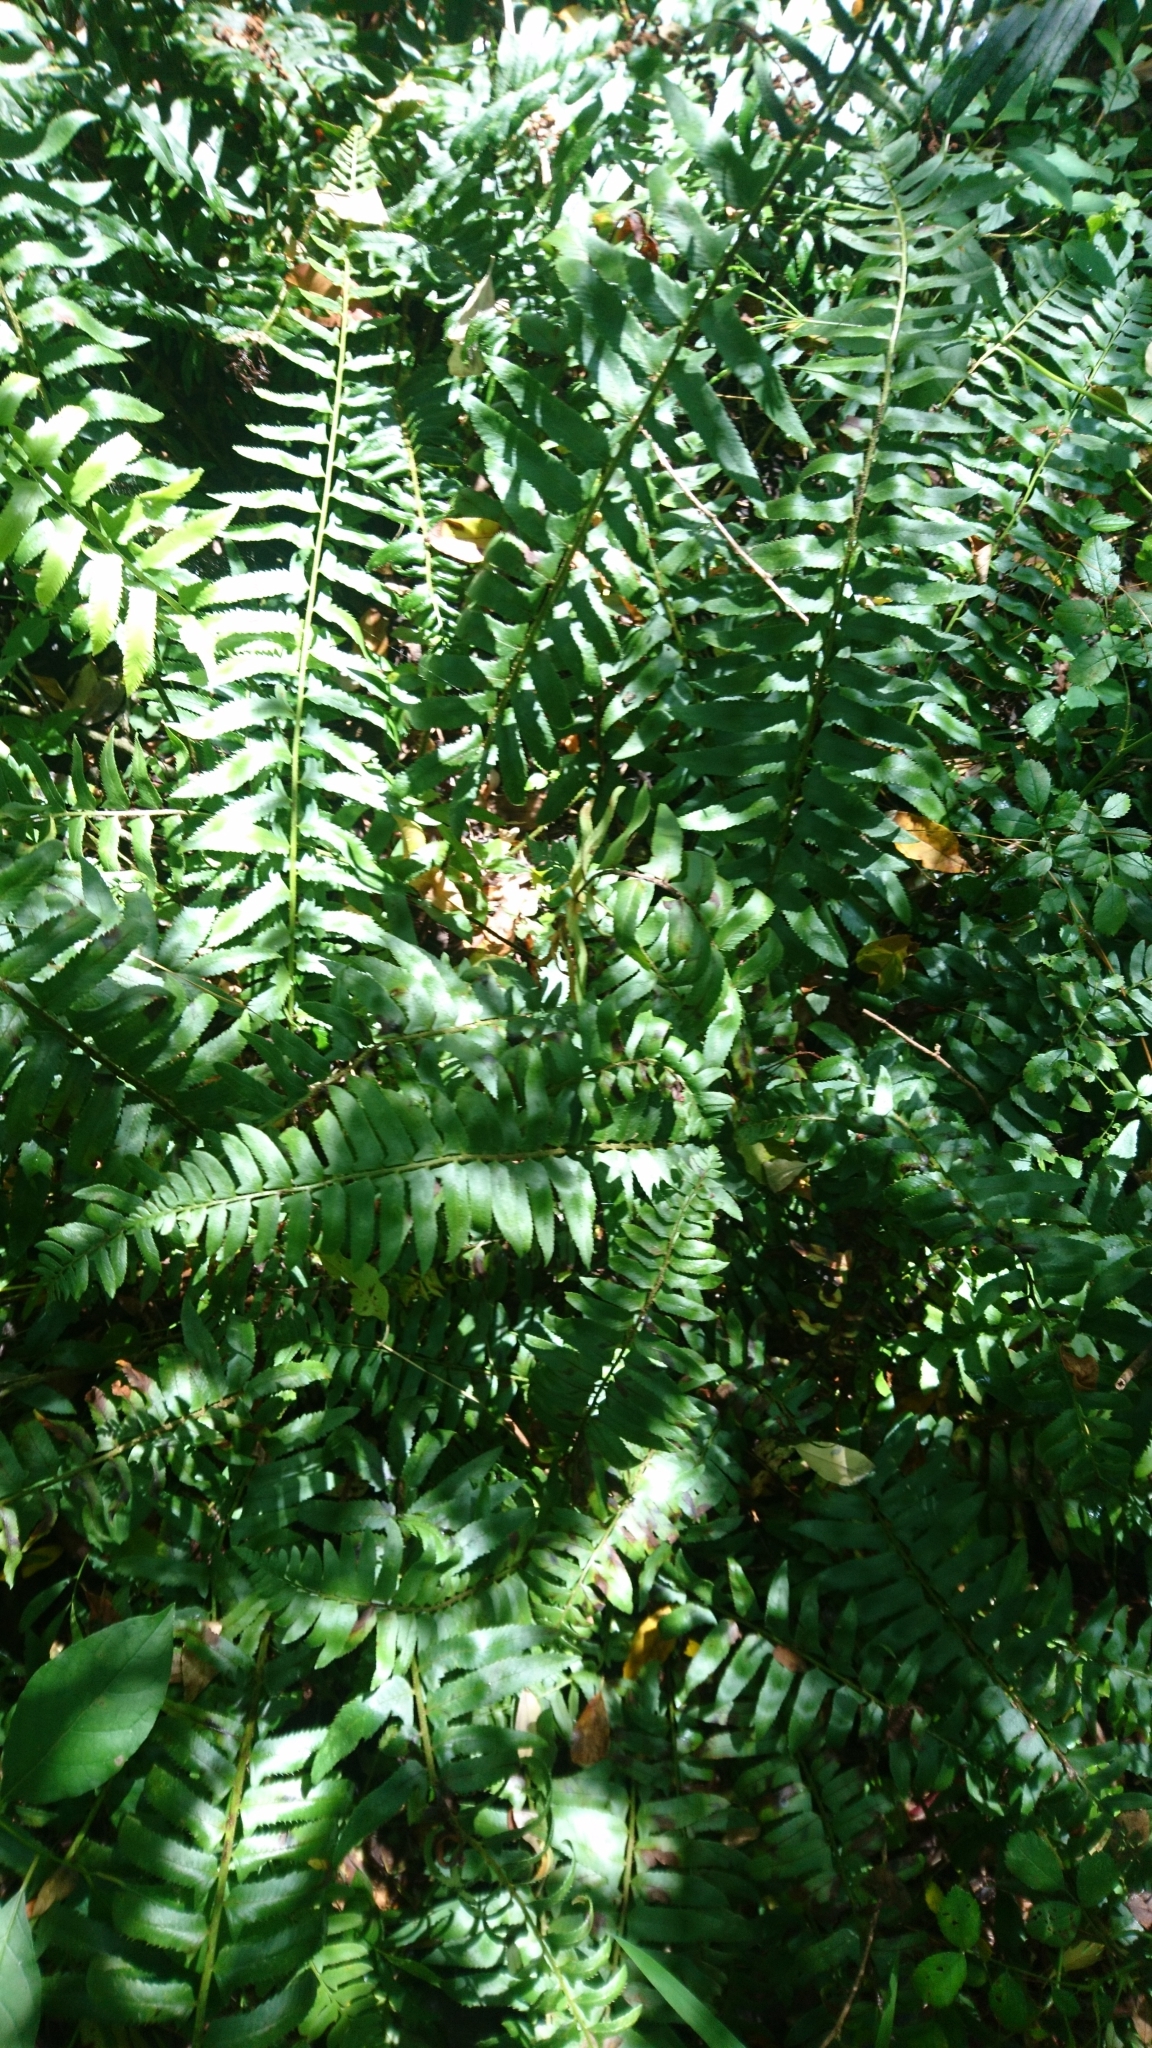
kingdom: Plantae
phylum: Tracheophyta
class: Polypodiopsida
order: Polypodiales
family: Dryopteridaceae
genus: Polystichum
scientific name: Polystichum acrostichoides
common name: Christmas fern
